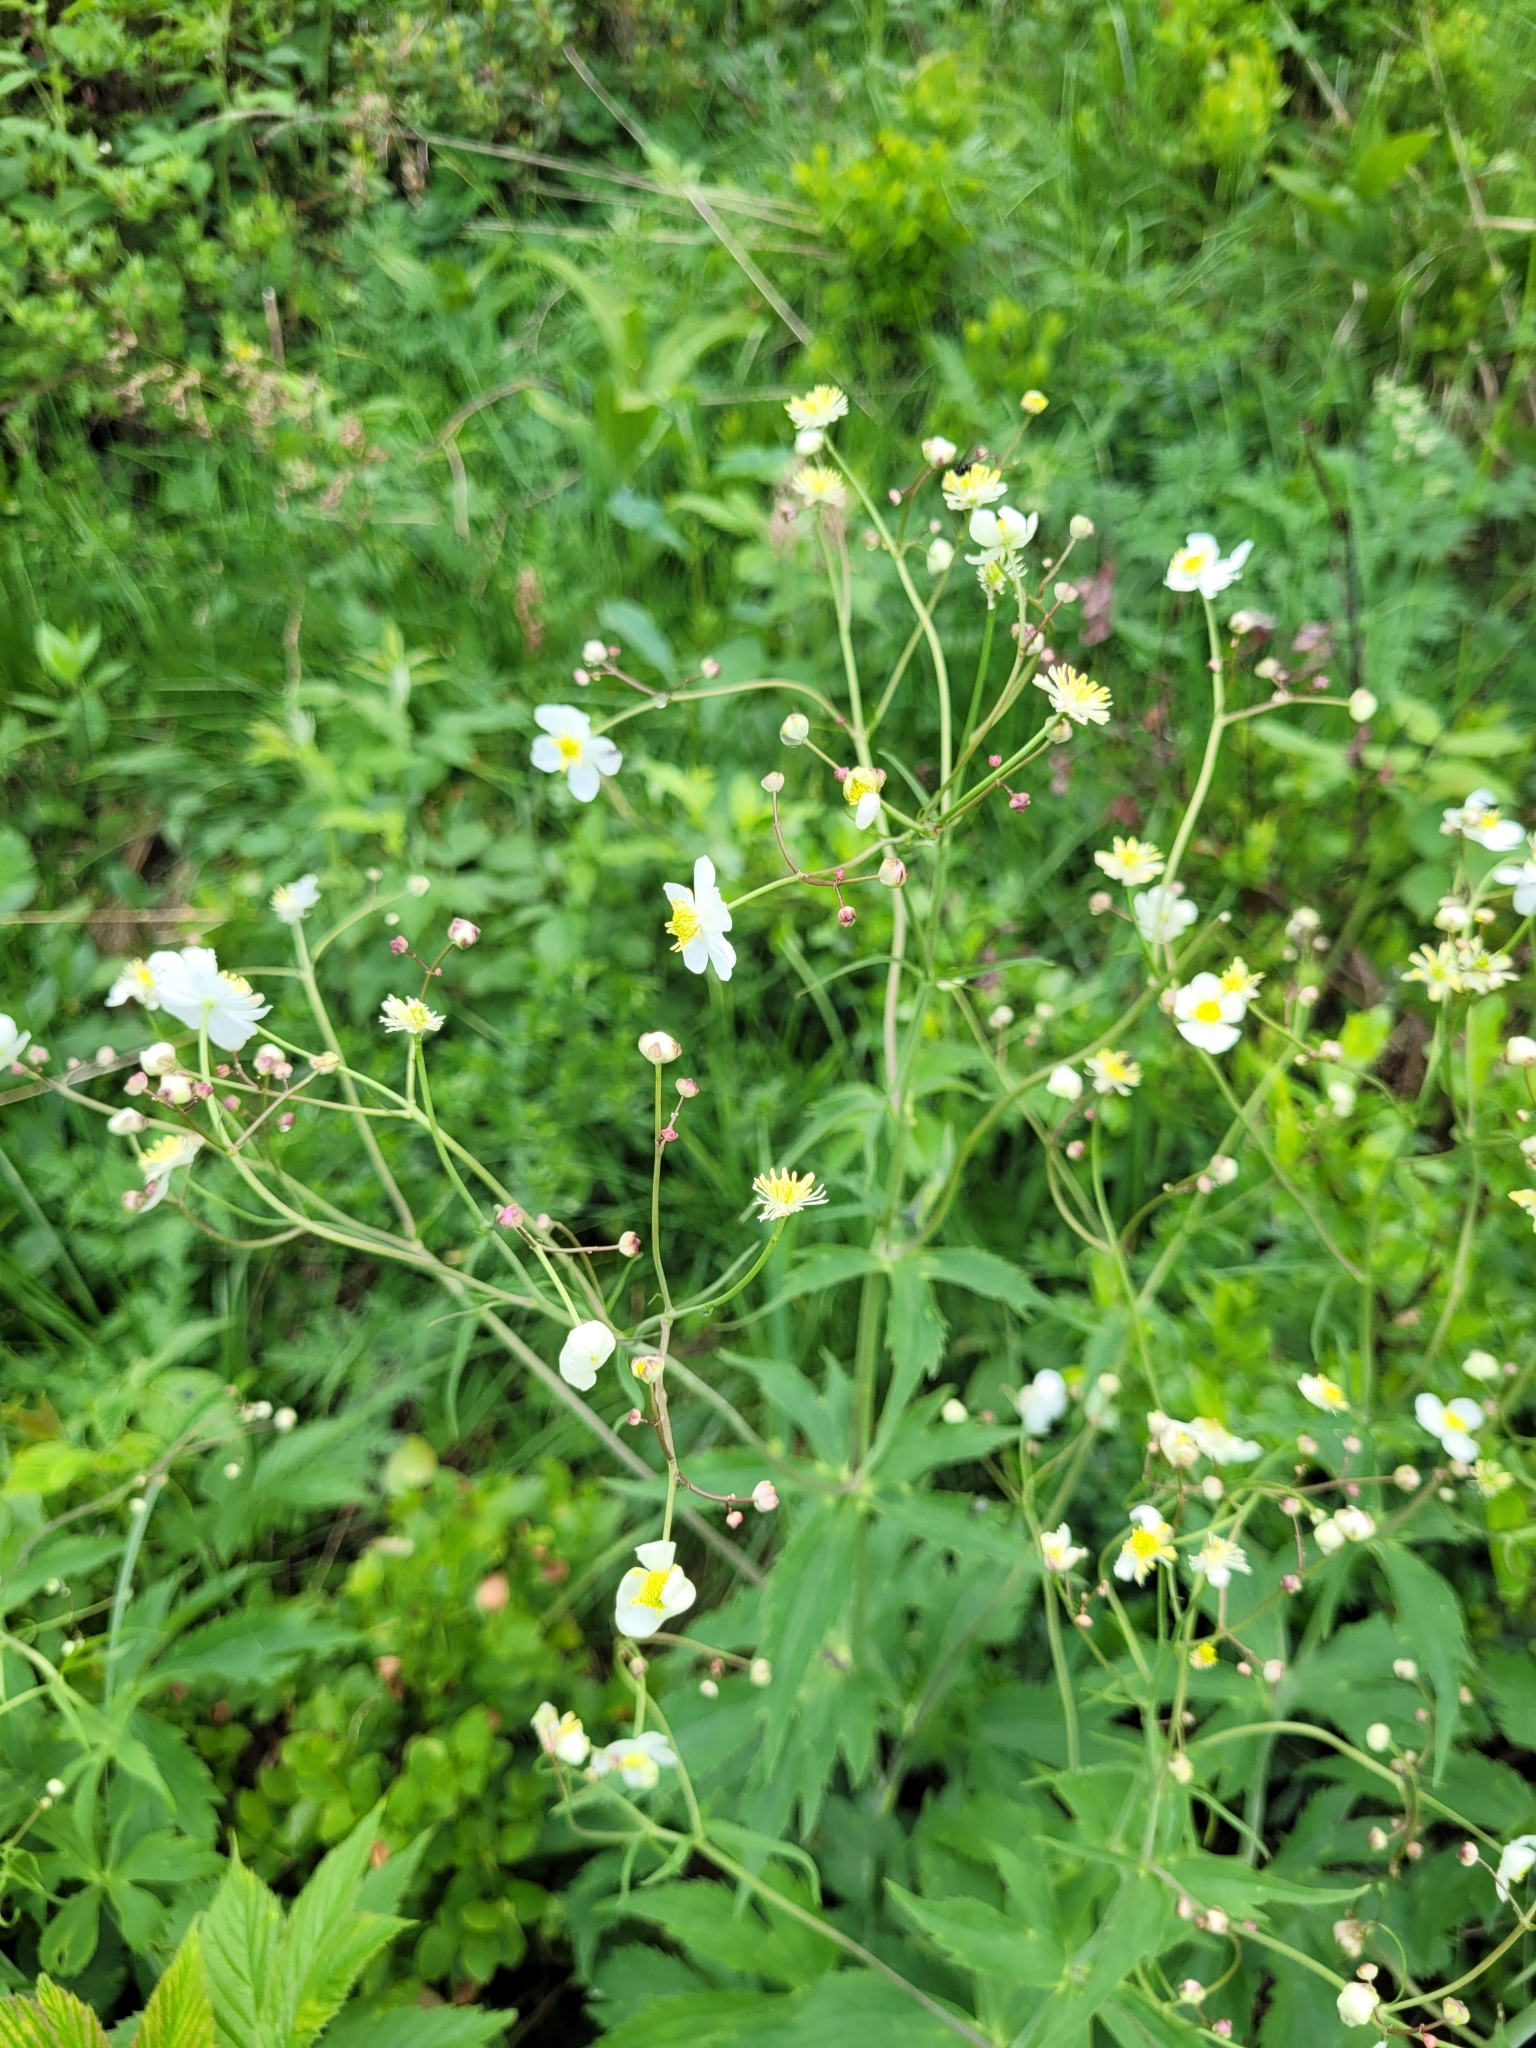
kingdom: Plantae
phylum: Tracheophyta
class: Magnoliopsida
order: Ranunculales
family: Ranunculaceae
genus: Ranunculus
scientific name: Ranunculus platanifolius
